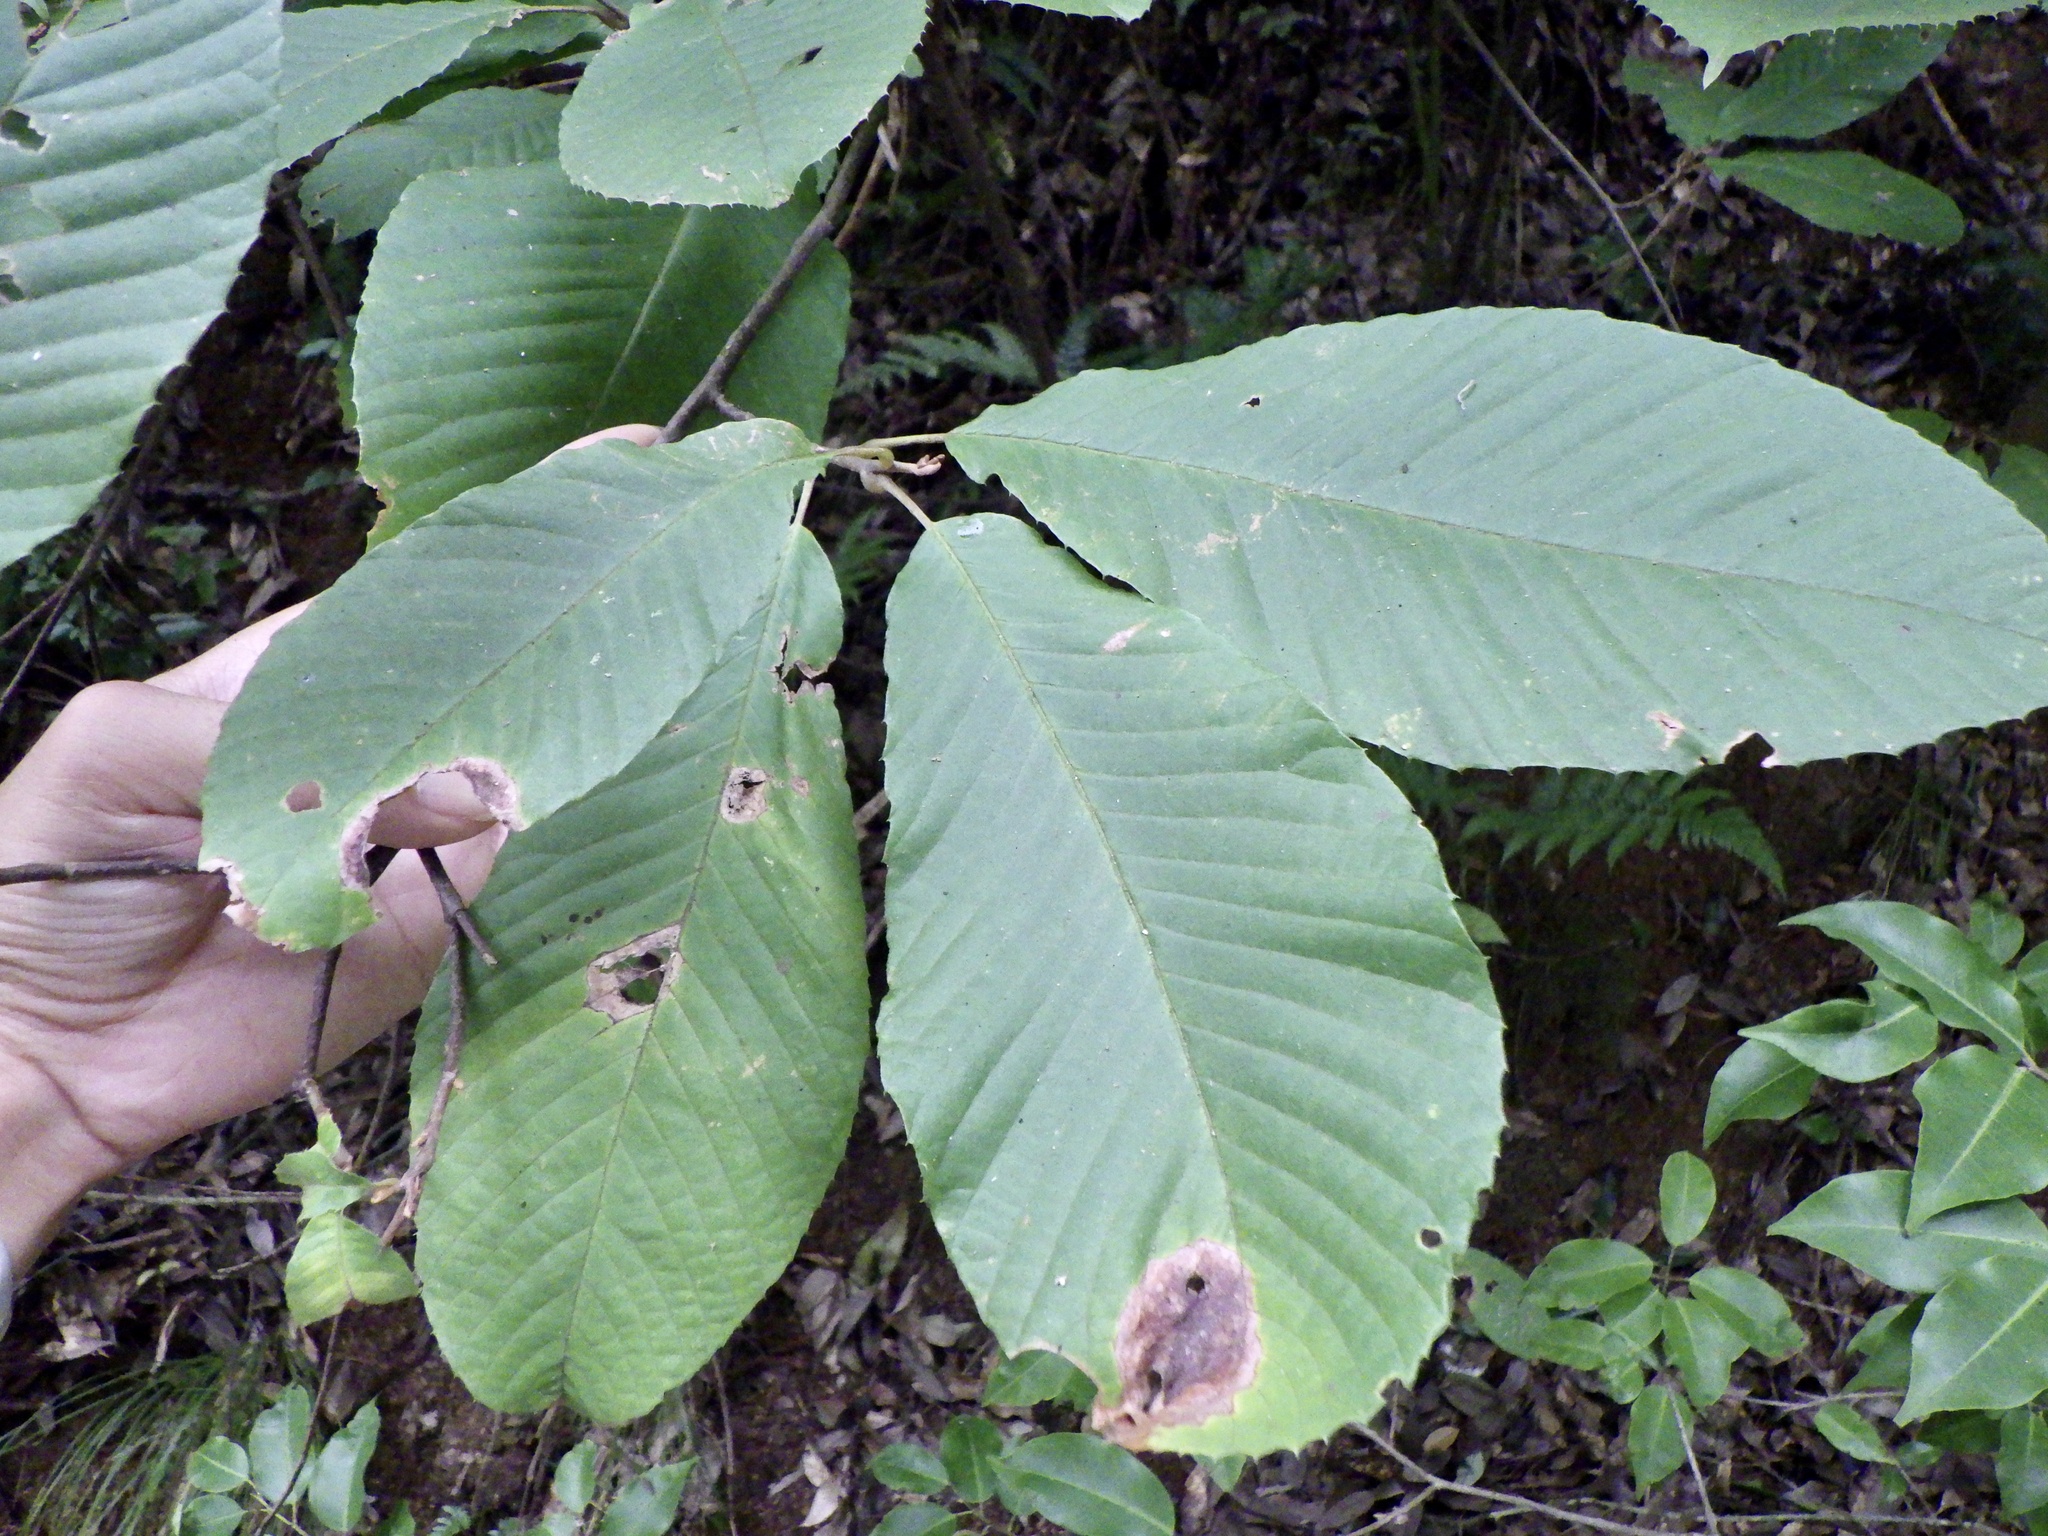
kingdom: Plantae
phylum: Tracheophyta
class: Magnoliopsida
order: Proteales
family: Sabiaceae
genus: Meliosma
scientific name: Meliosma myriantha
